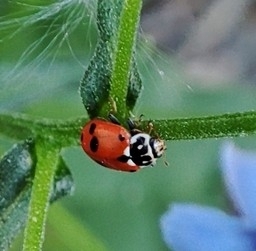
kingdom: Animalia
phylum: Arthropoda
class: Insecta
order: Coleoptera
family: Coccinellidae
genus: Hippodamia
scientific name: Hippodamia variegata
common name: Ladybird beetle
